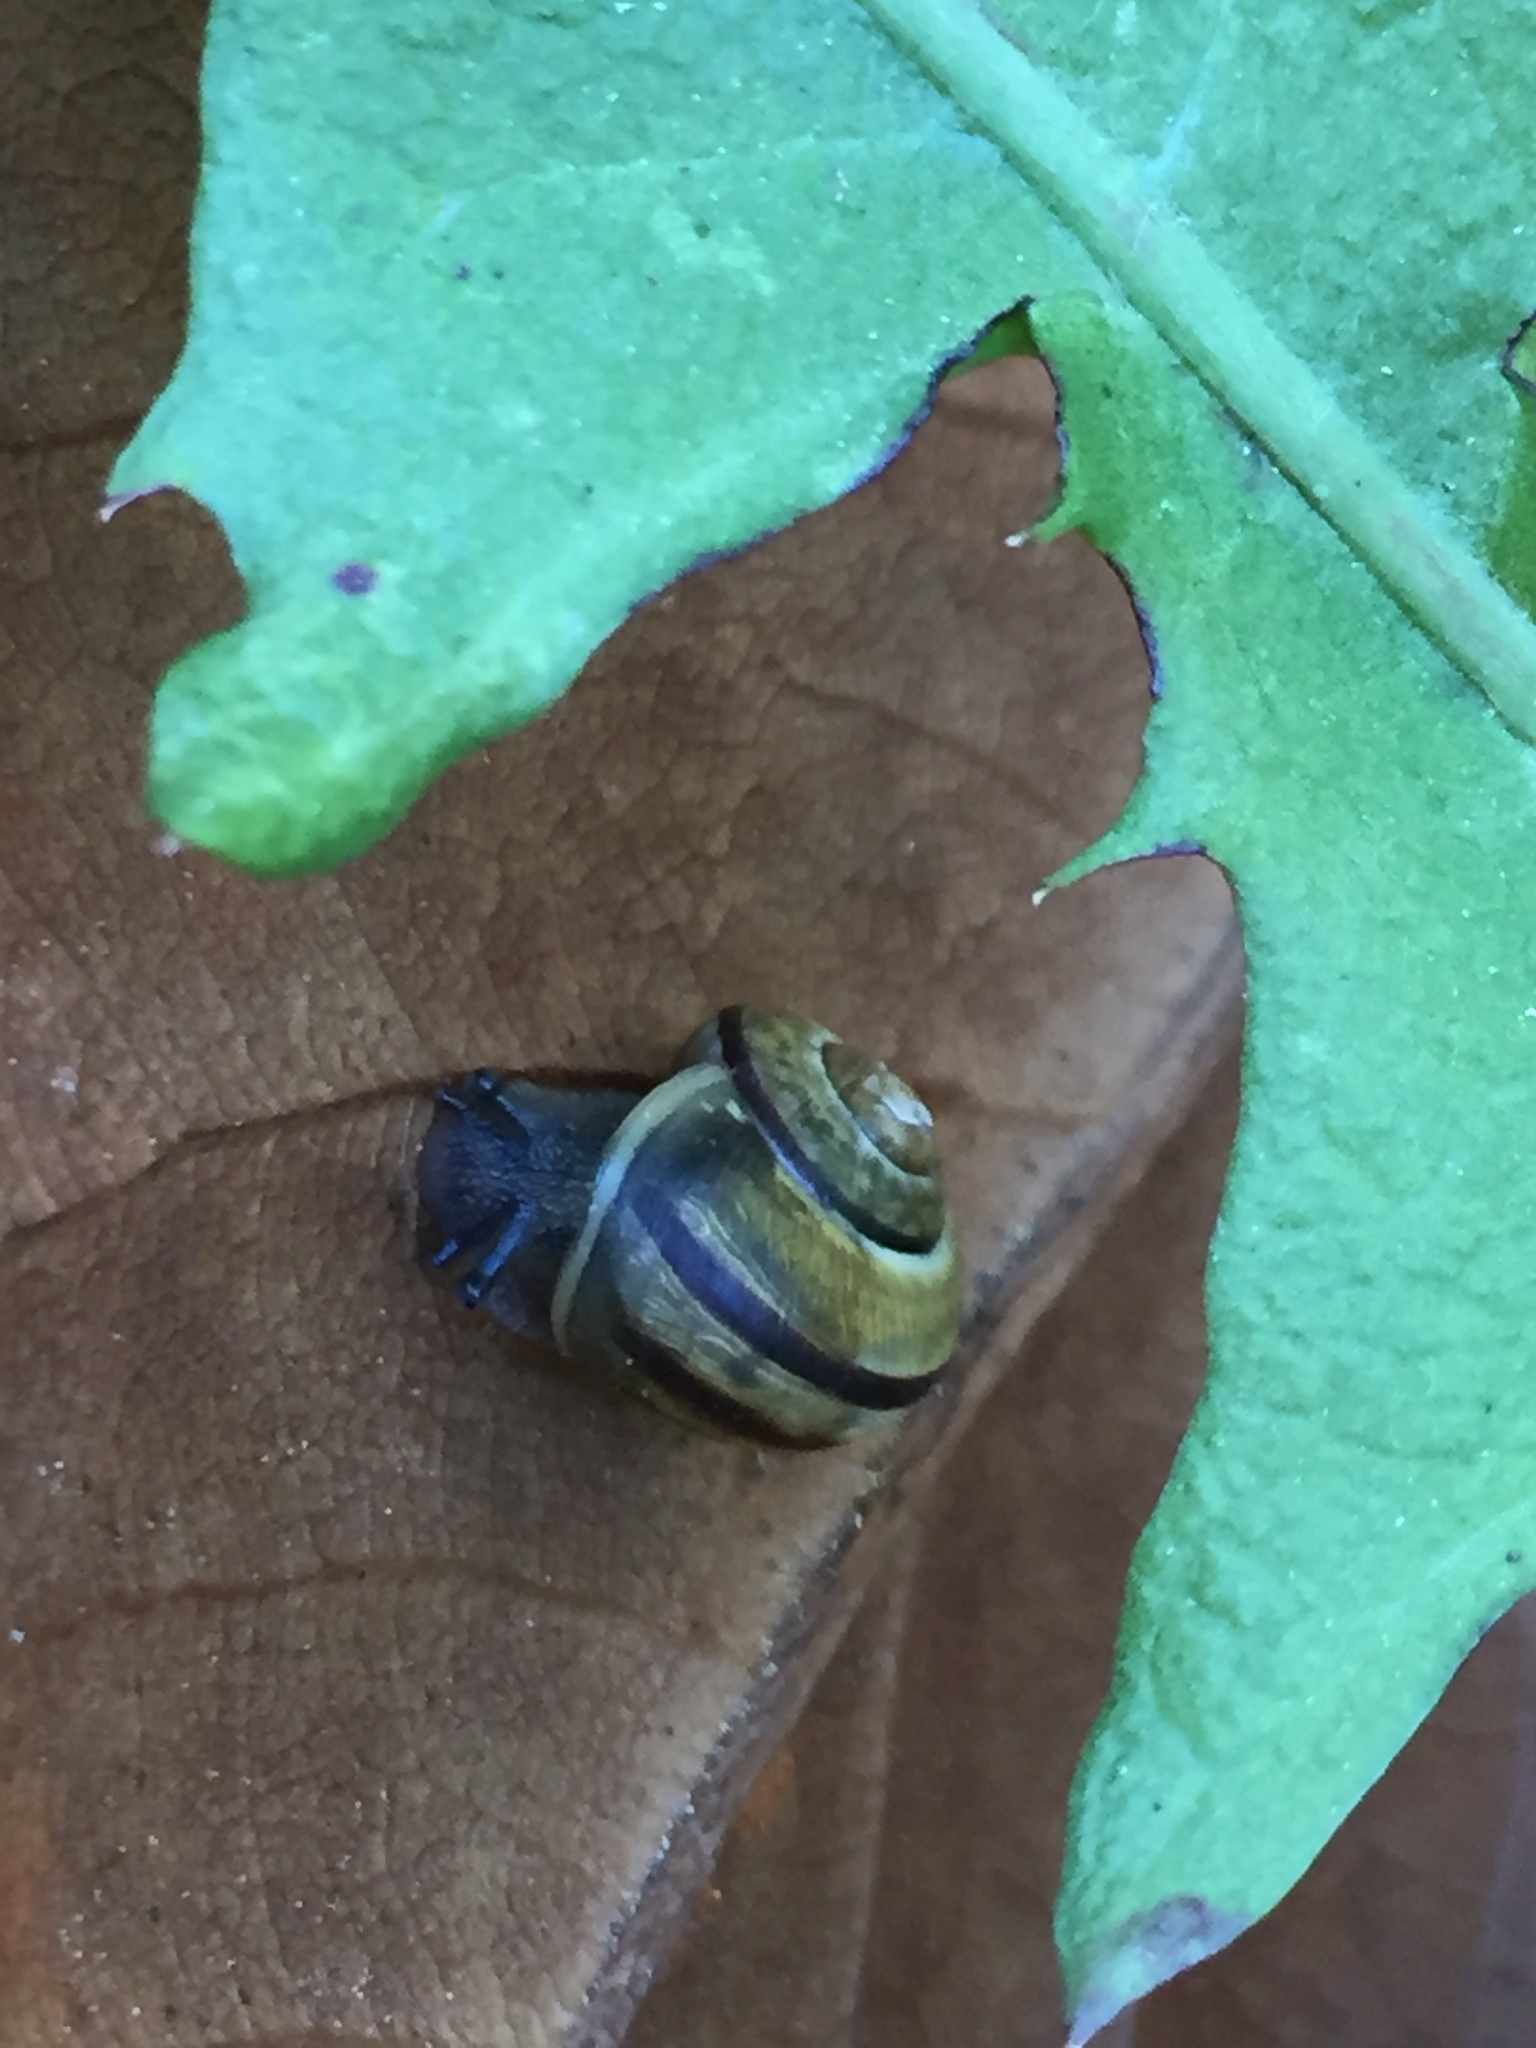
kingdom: Animalia
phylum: Mollusca
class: Gastropoda
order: Stylommatophora
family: Helicidae
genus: Cepaea
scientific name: Cepaea nemoralis
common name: Grovesnail
